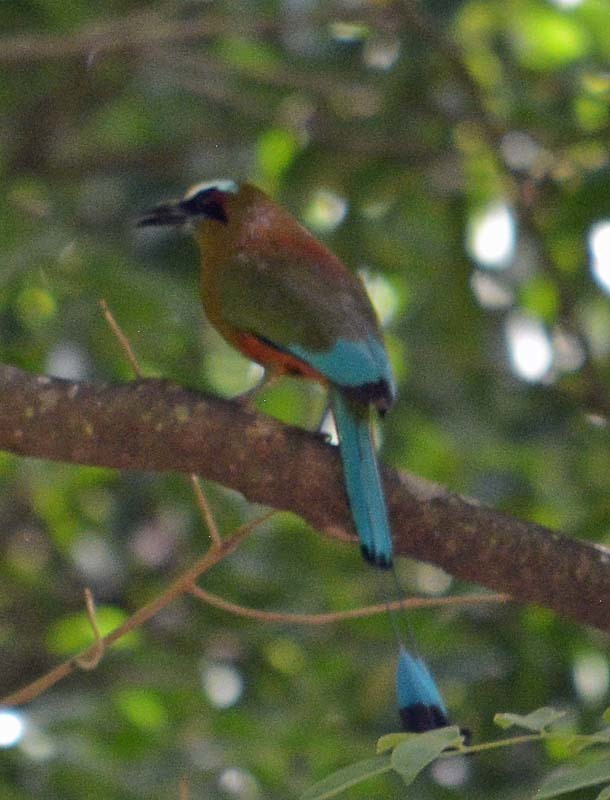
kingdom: Animalia
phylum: Chordata
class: Aves
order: Coraciiformes
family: Momotidae
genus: Eumomota
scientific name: Eumomota superciliosa
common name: Turquoise-browed motmot
